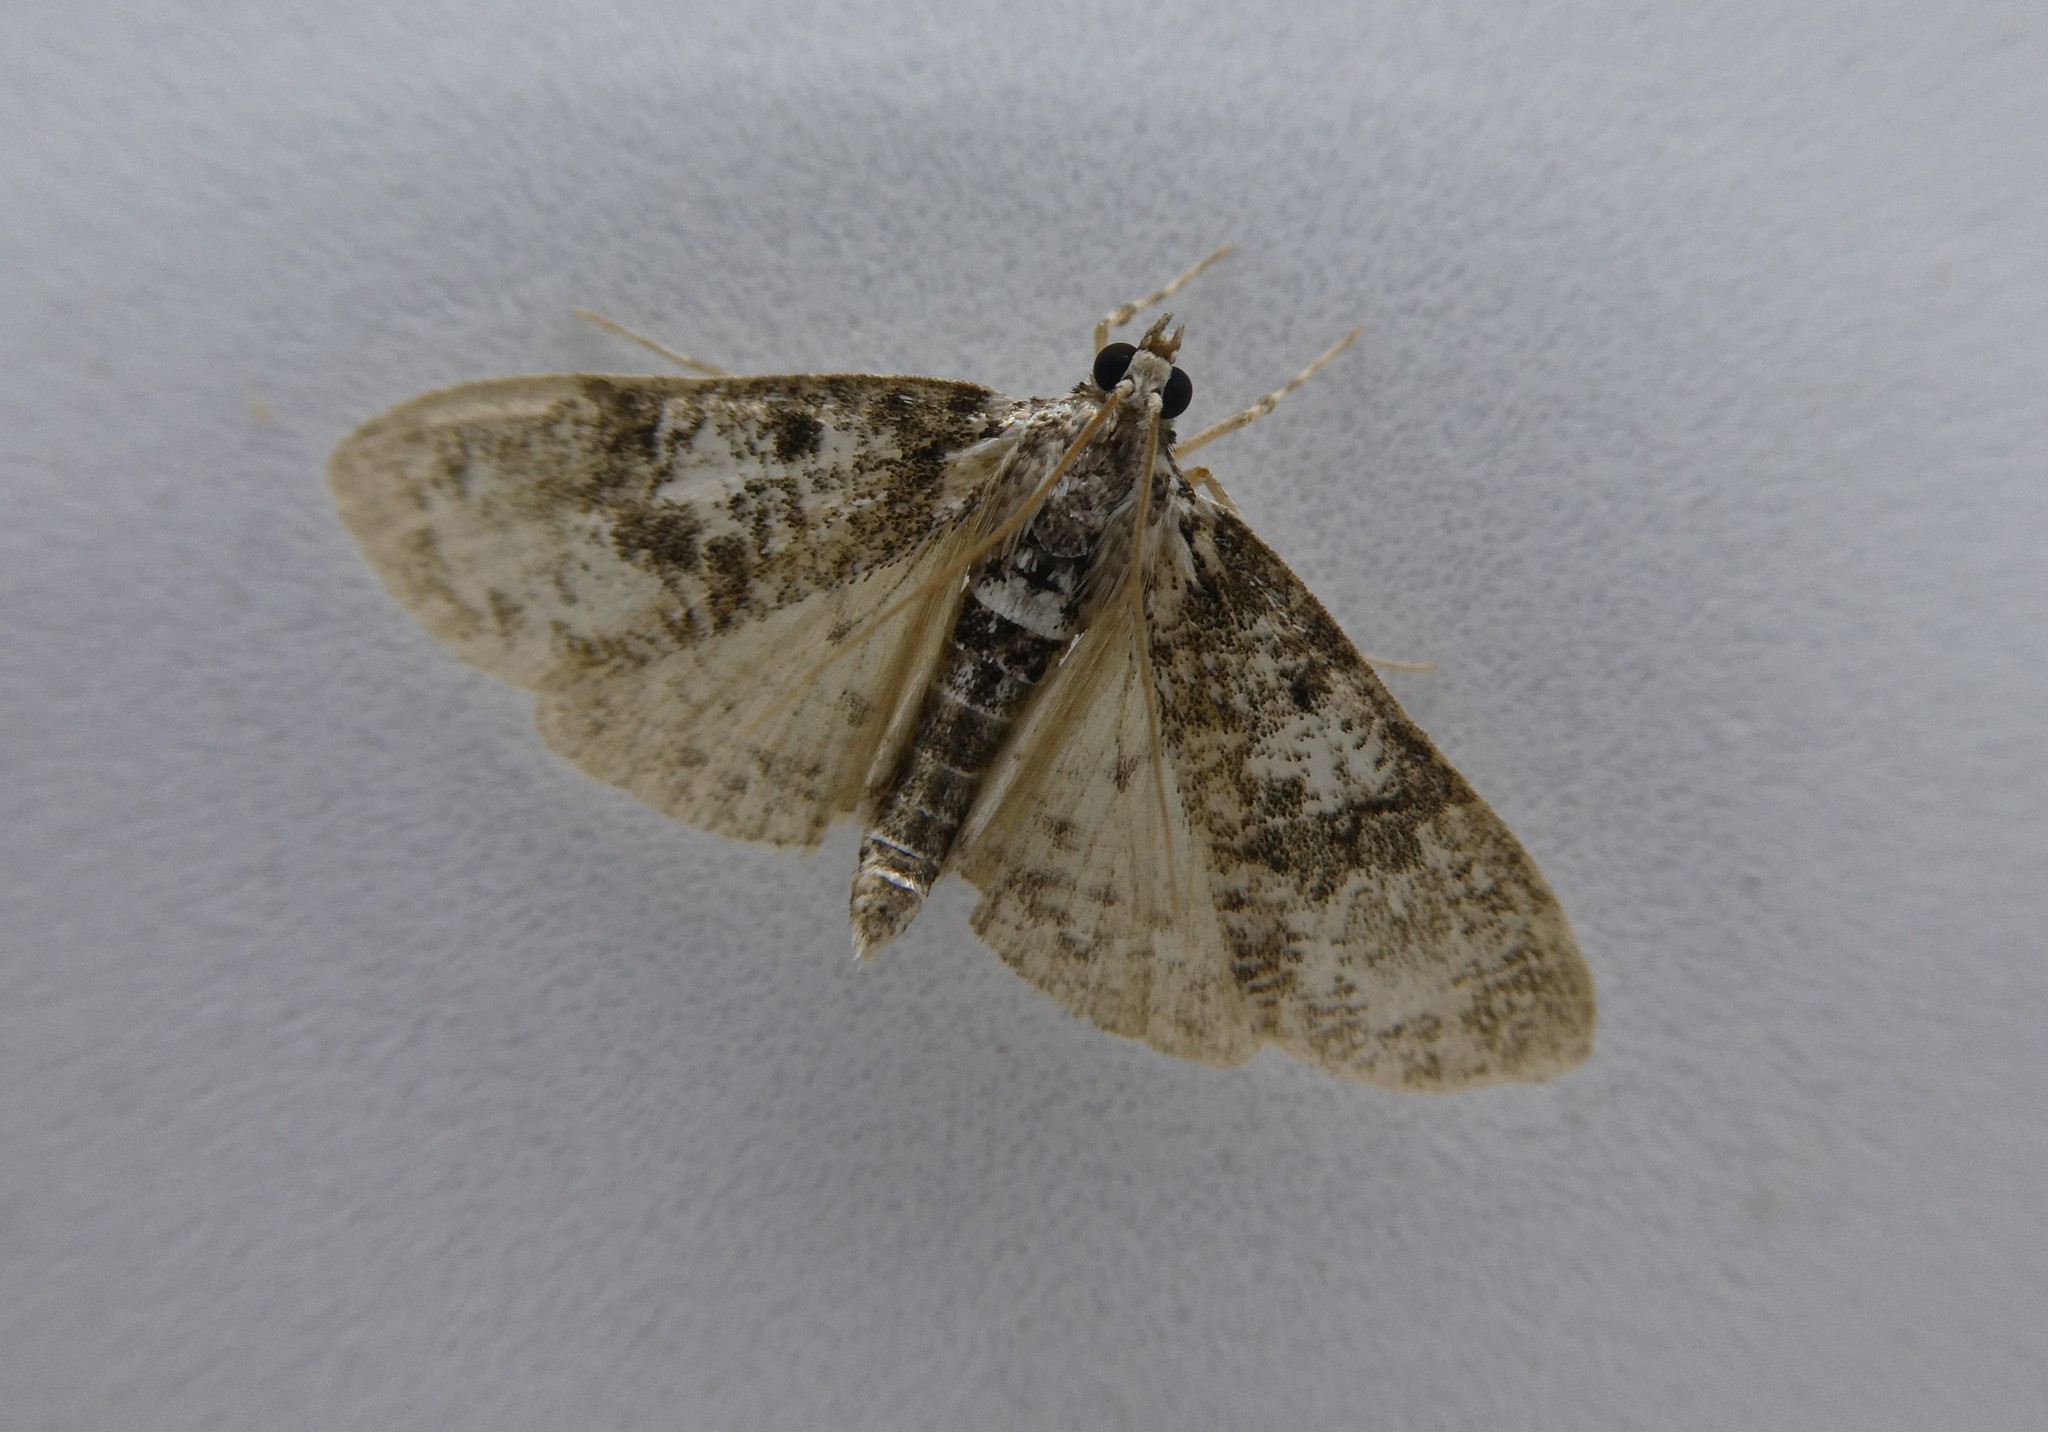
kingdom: Animalia
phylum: Arthropoda
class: Insecta
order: Lepidoptera
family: Crambidae
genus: Palpita
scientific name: Palpita magniferalis
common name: Splendid palpita moth
